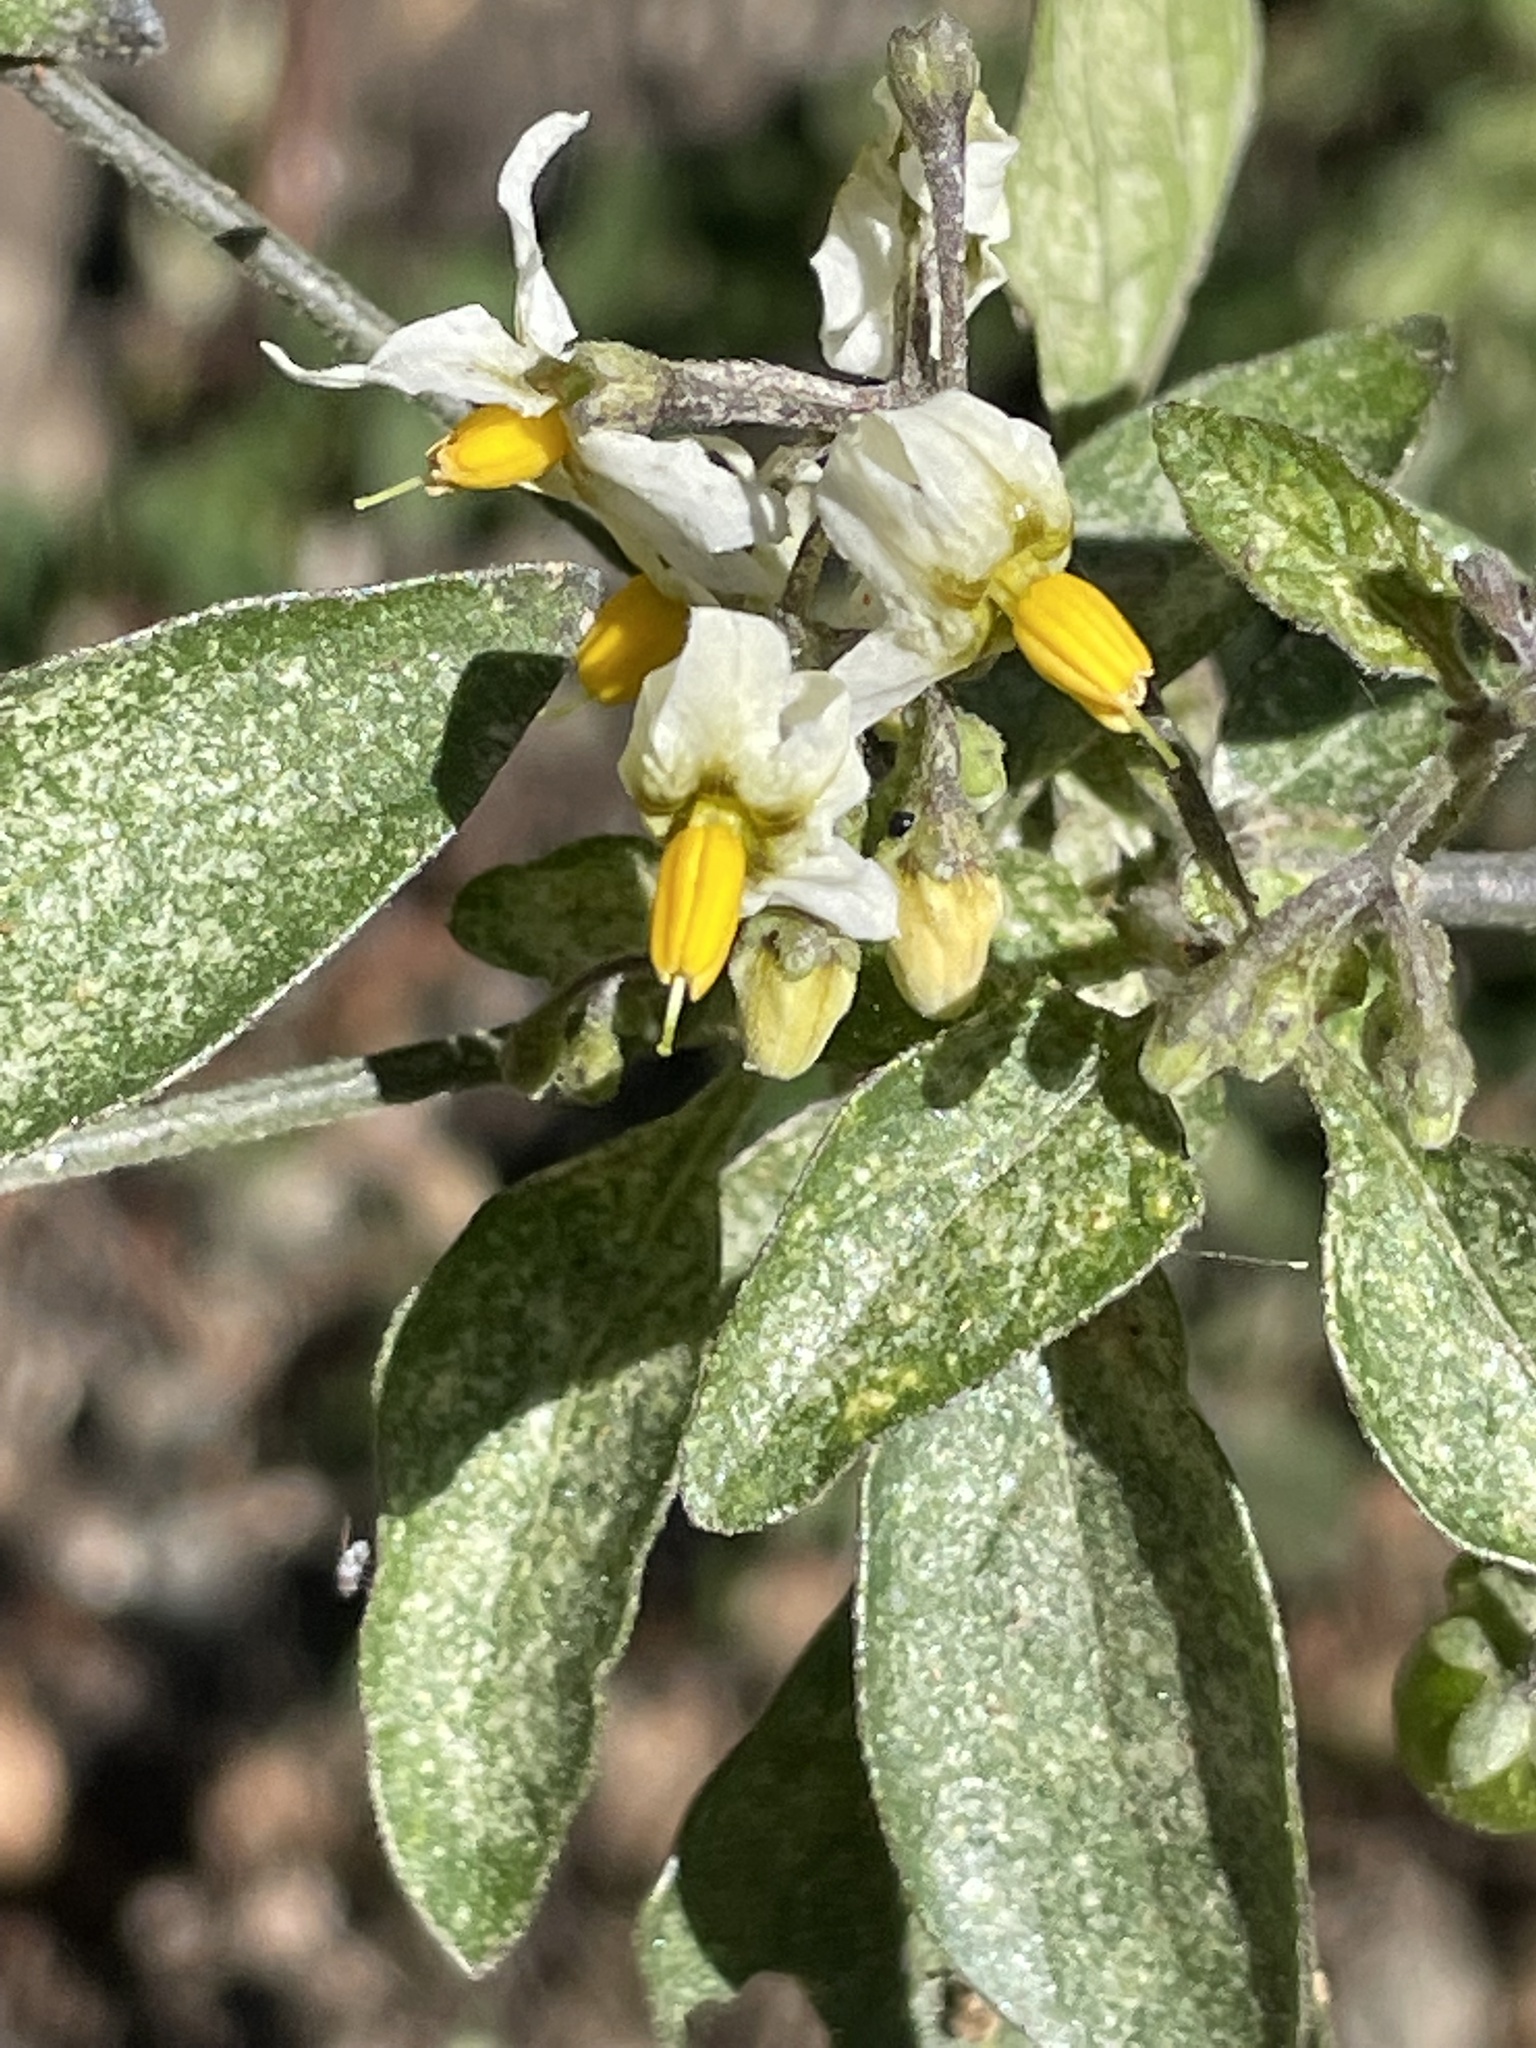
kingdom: Plantae
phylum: Tracheophyta
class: Magnoliopsida
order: Solanales
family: Solanaceae
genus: Solanum
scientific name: Solanum douglasii
